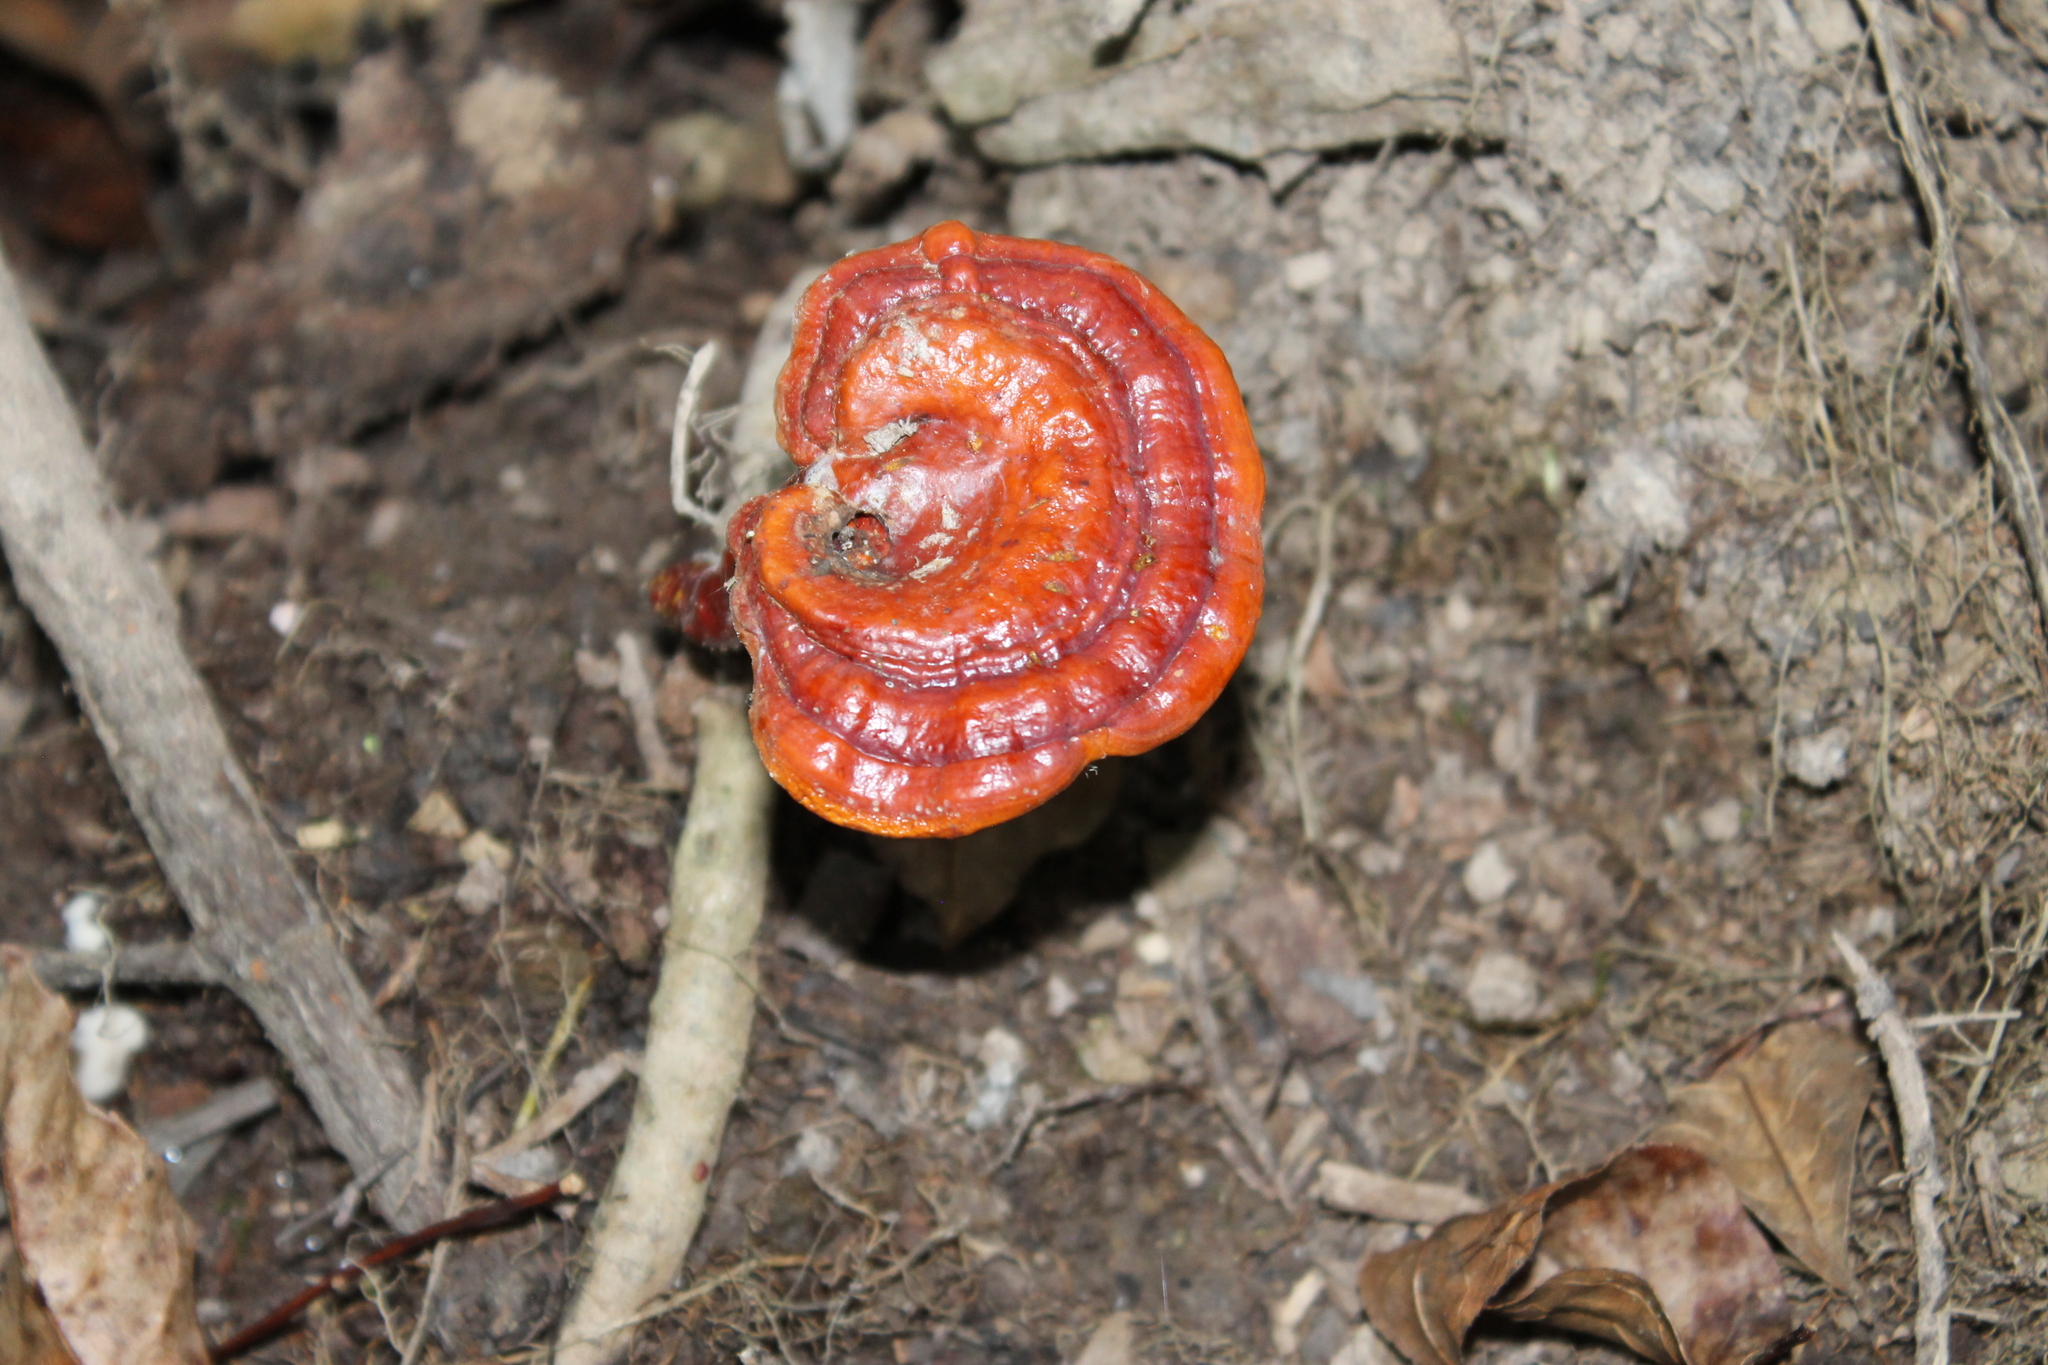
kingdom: Fungi
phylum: Basidiomycota
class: Agaricomycetes
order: Polyporales
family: Polyporaceae
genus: Ganoderma
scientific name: Ganoderma curtisii
